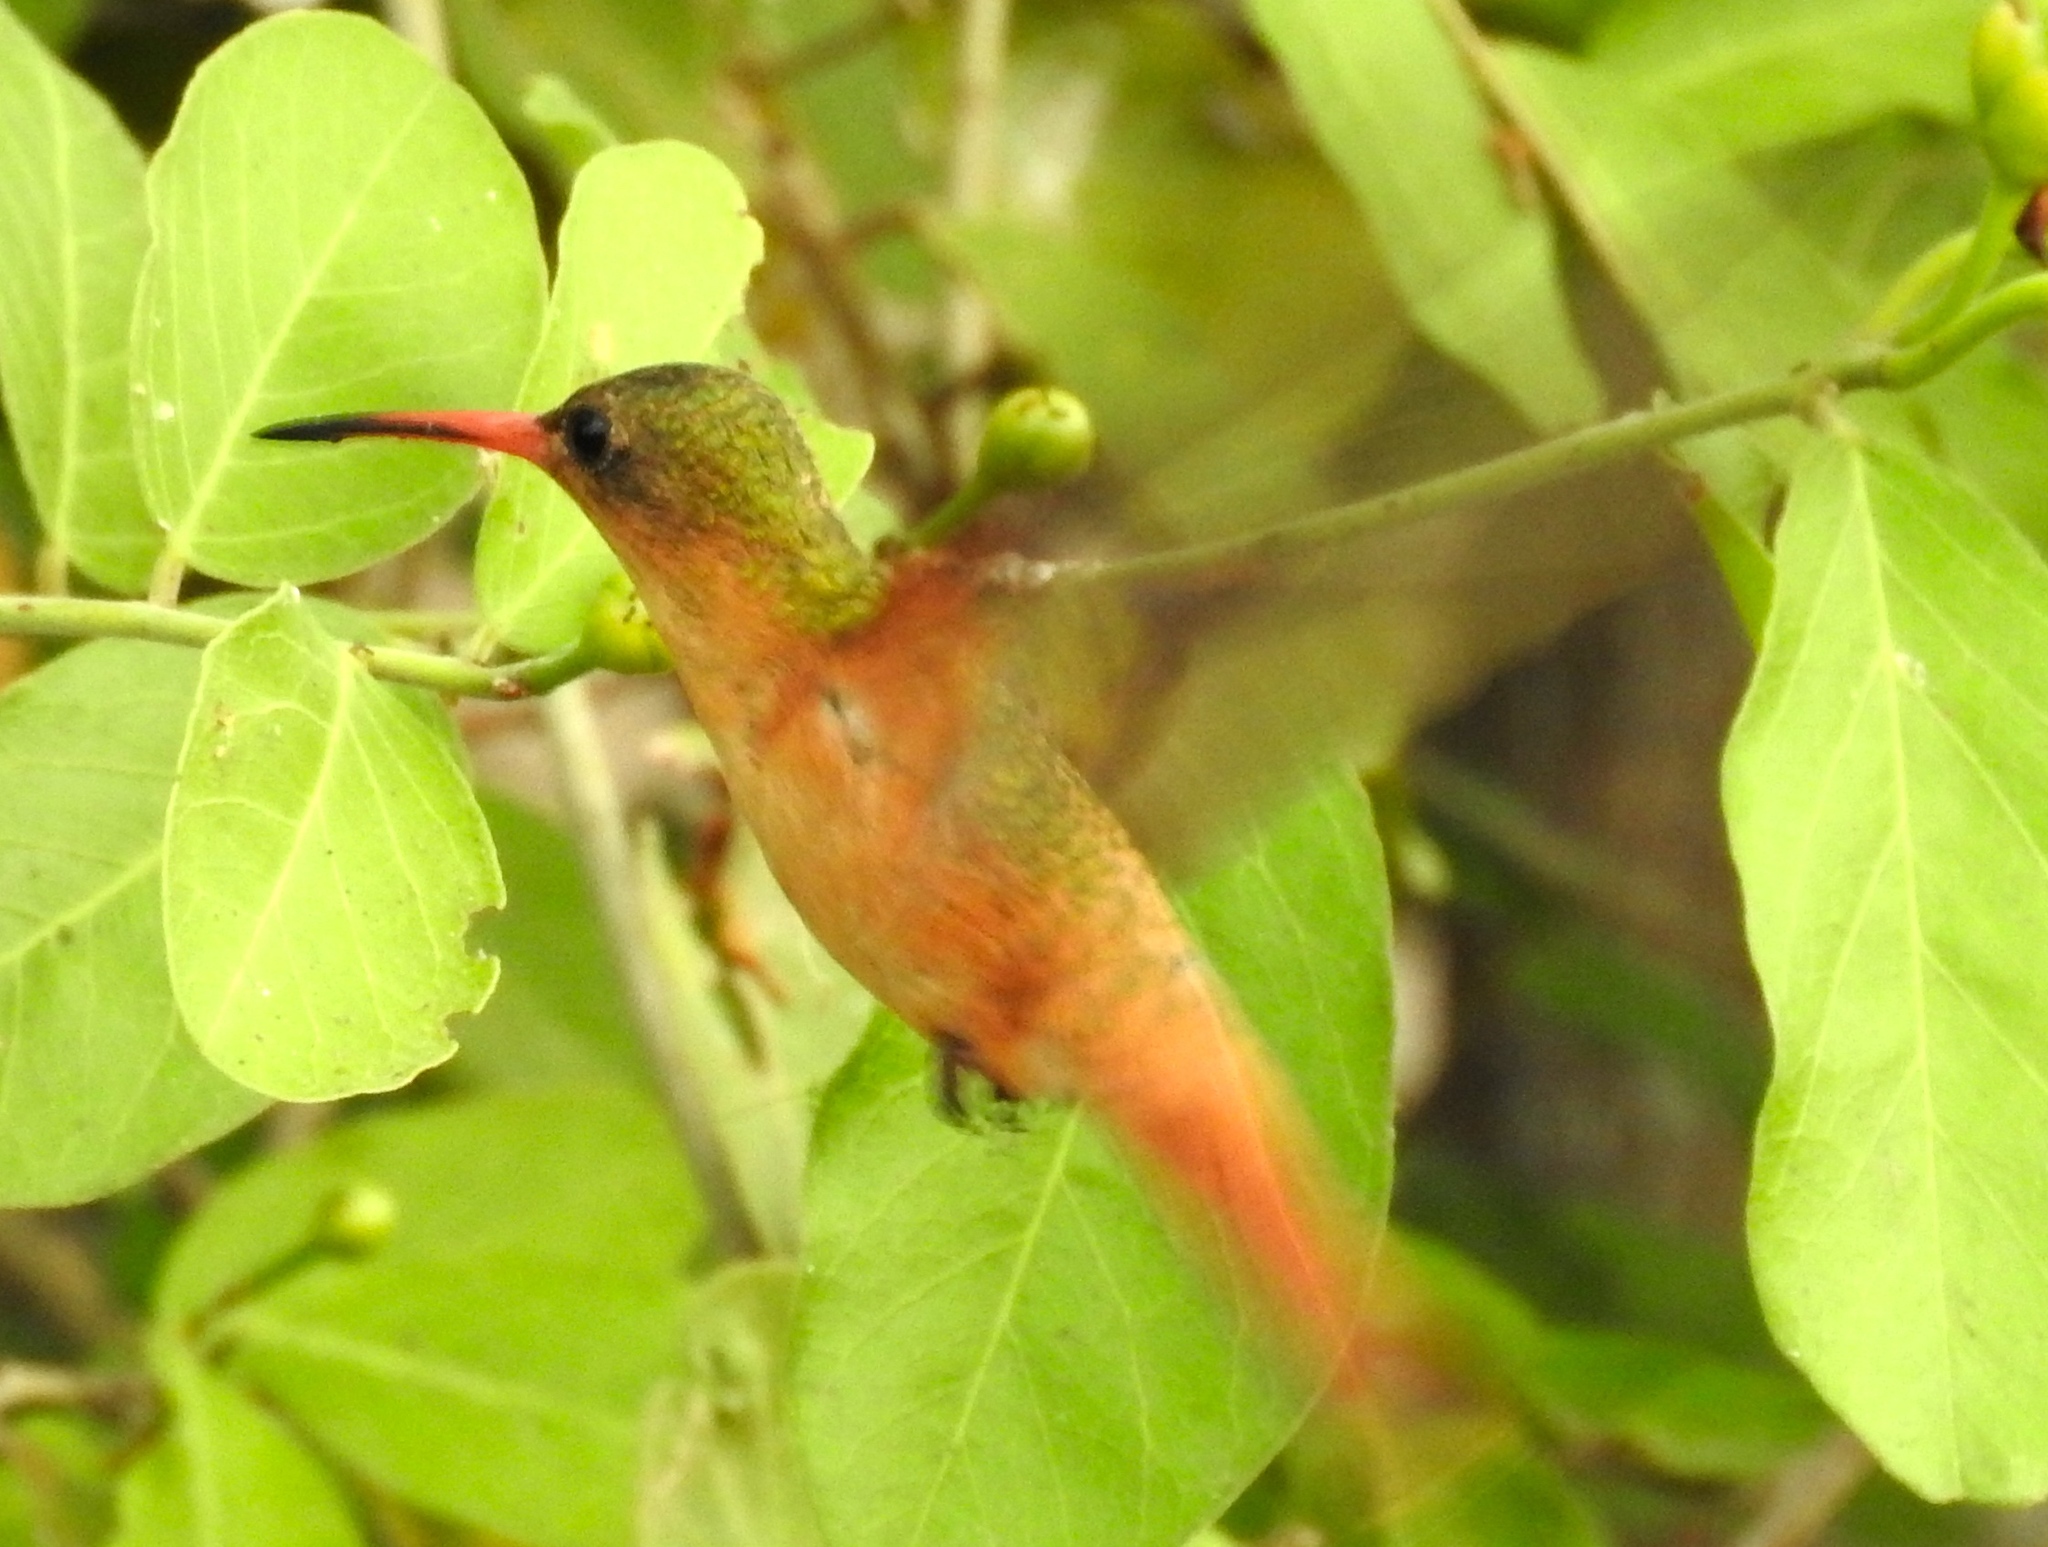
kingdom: Animalia
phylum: Chordata
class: Aves
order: Apodiformes
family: Trochilidae
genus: Amazilia
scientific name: Amazilia rutila
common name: Cinnamon hummingbird
